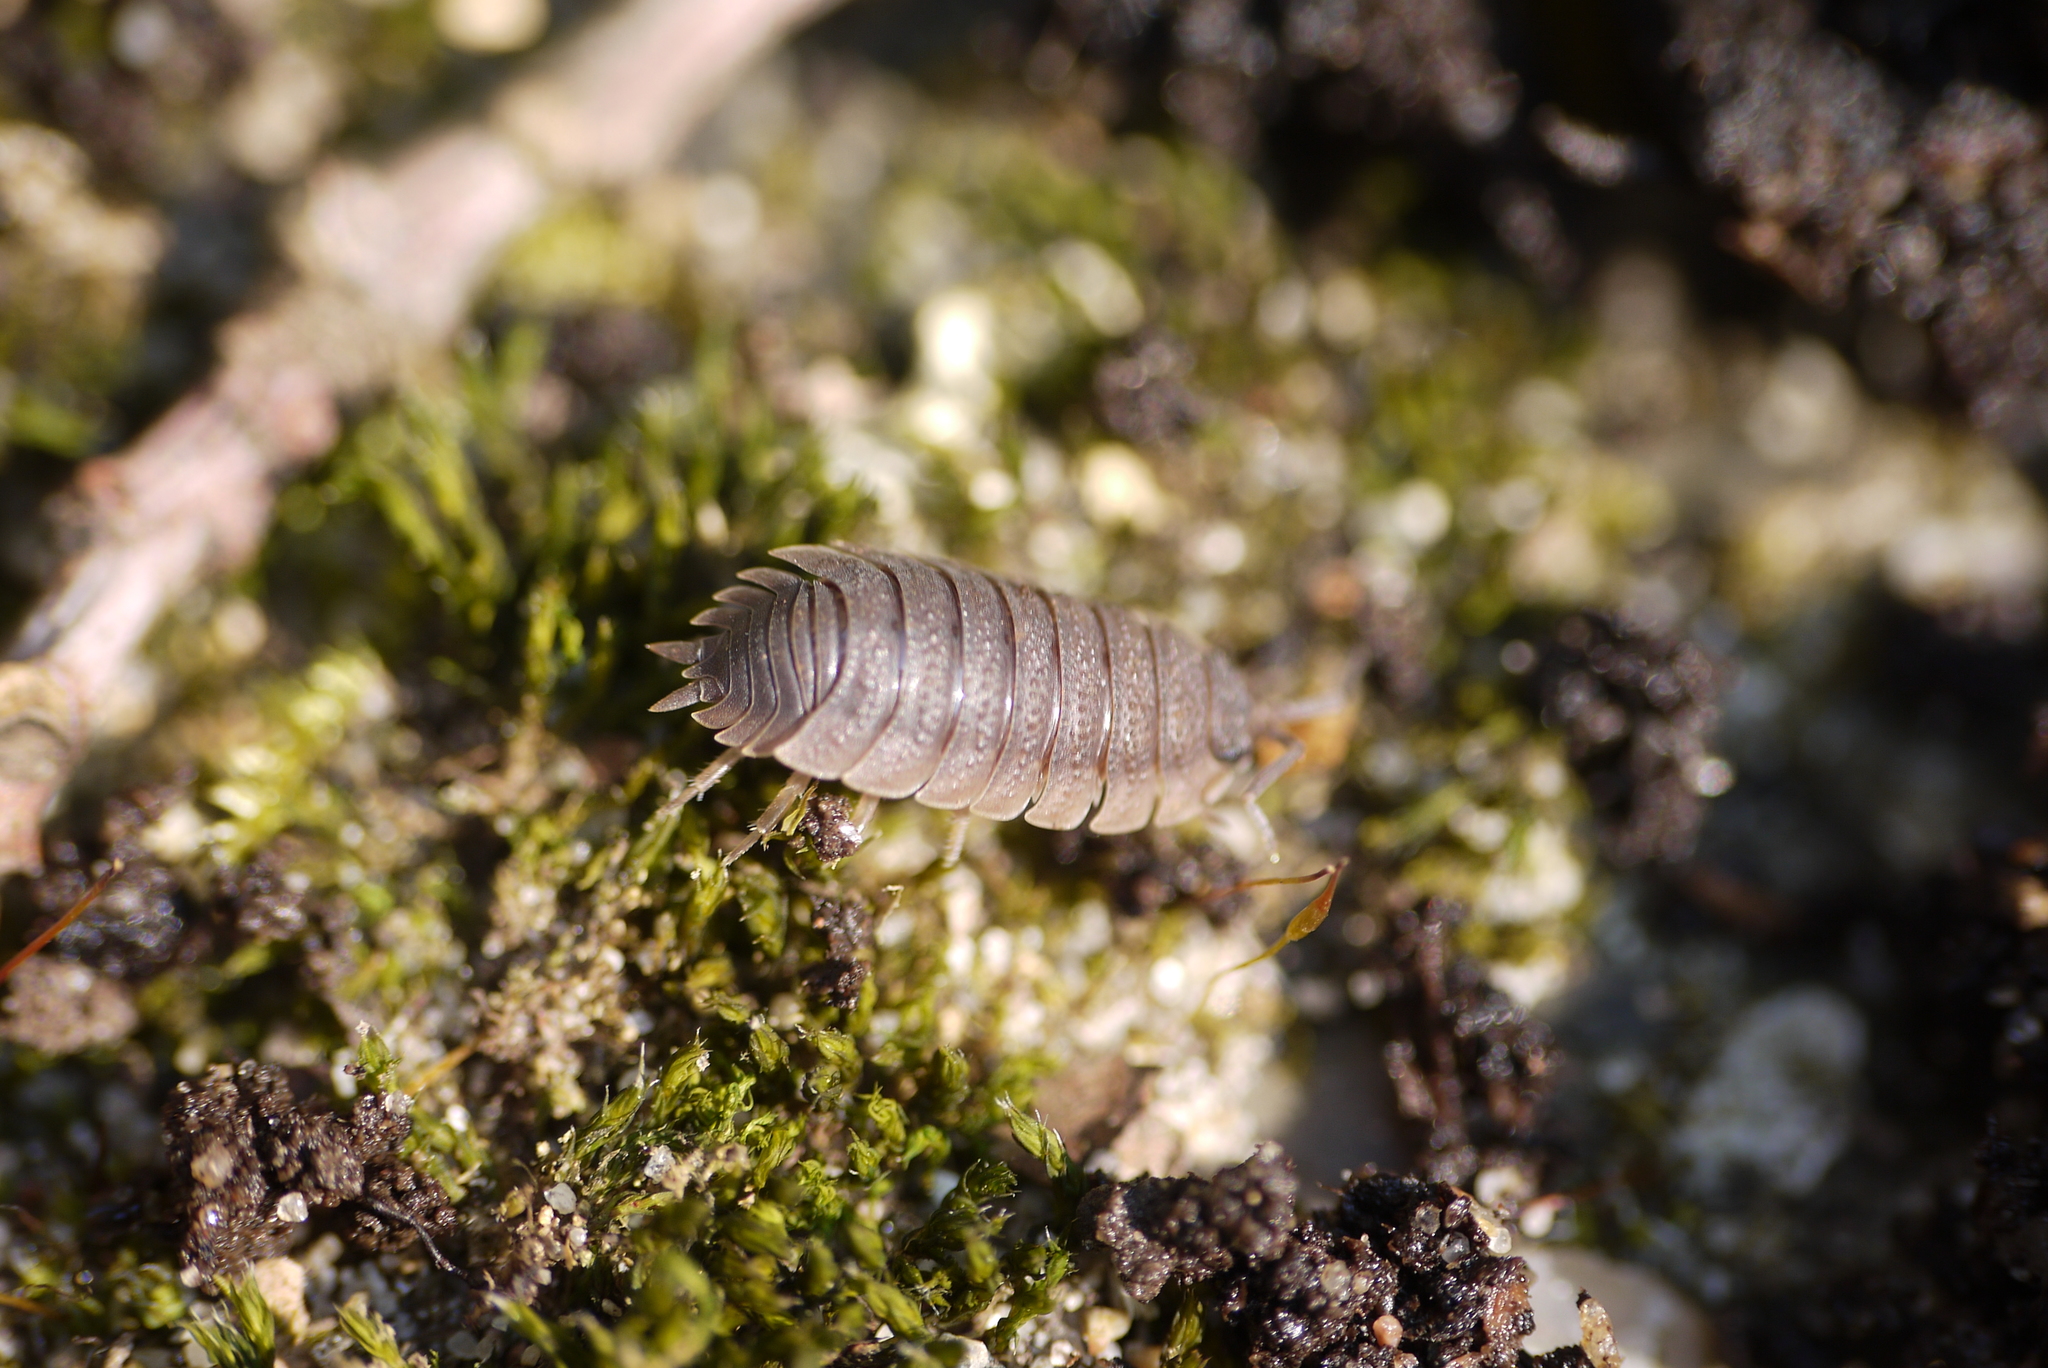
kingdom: Animalia
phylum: Arthropoda
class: Malacostraca
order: Isopoda
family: Porcellionidae
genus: Porcellio
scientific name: Porcellio scaber
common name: Common rough woodlouse
